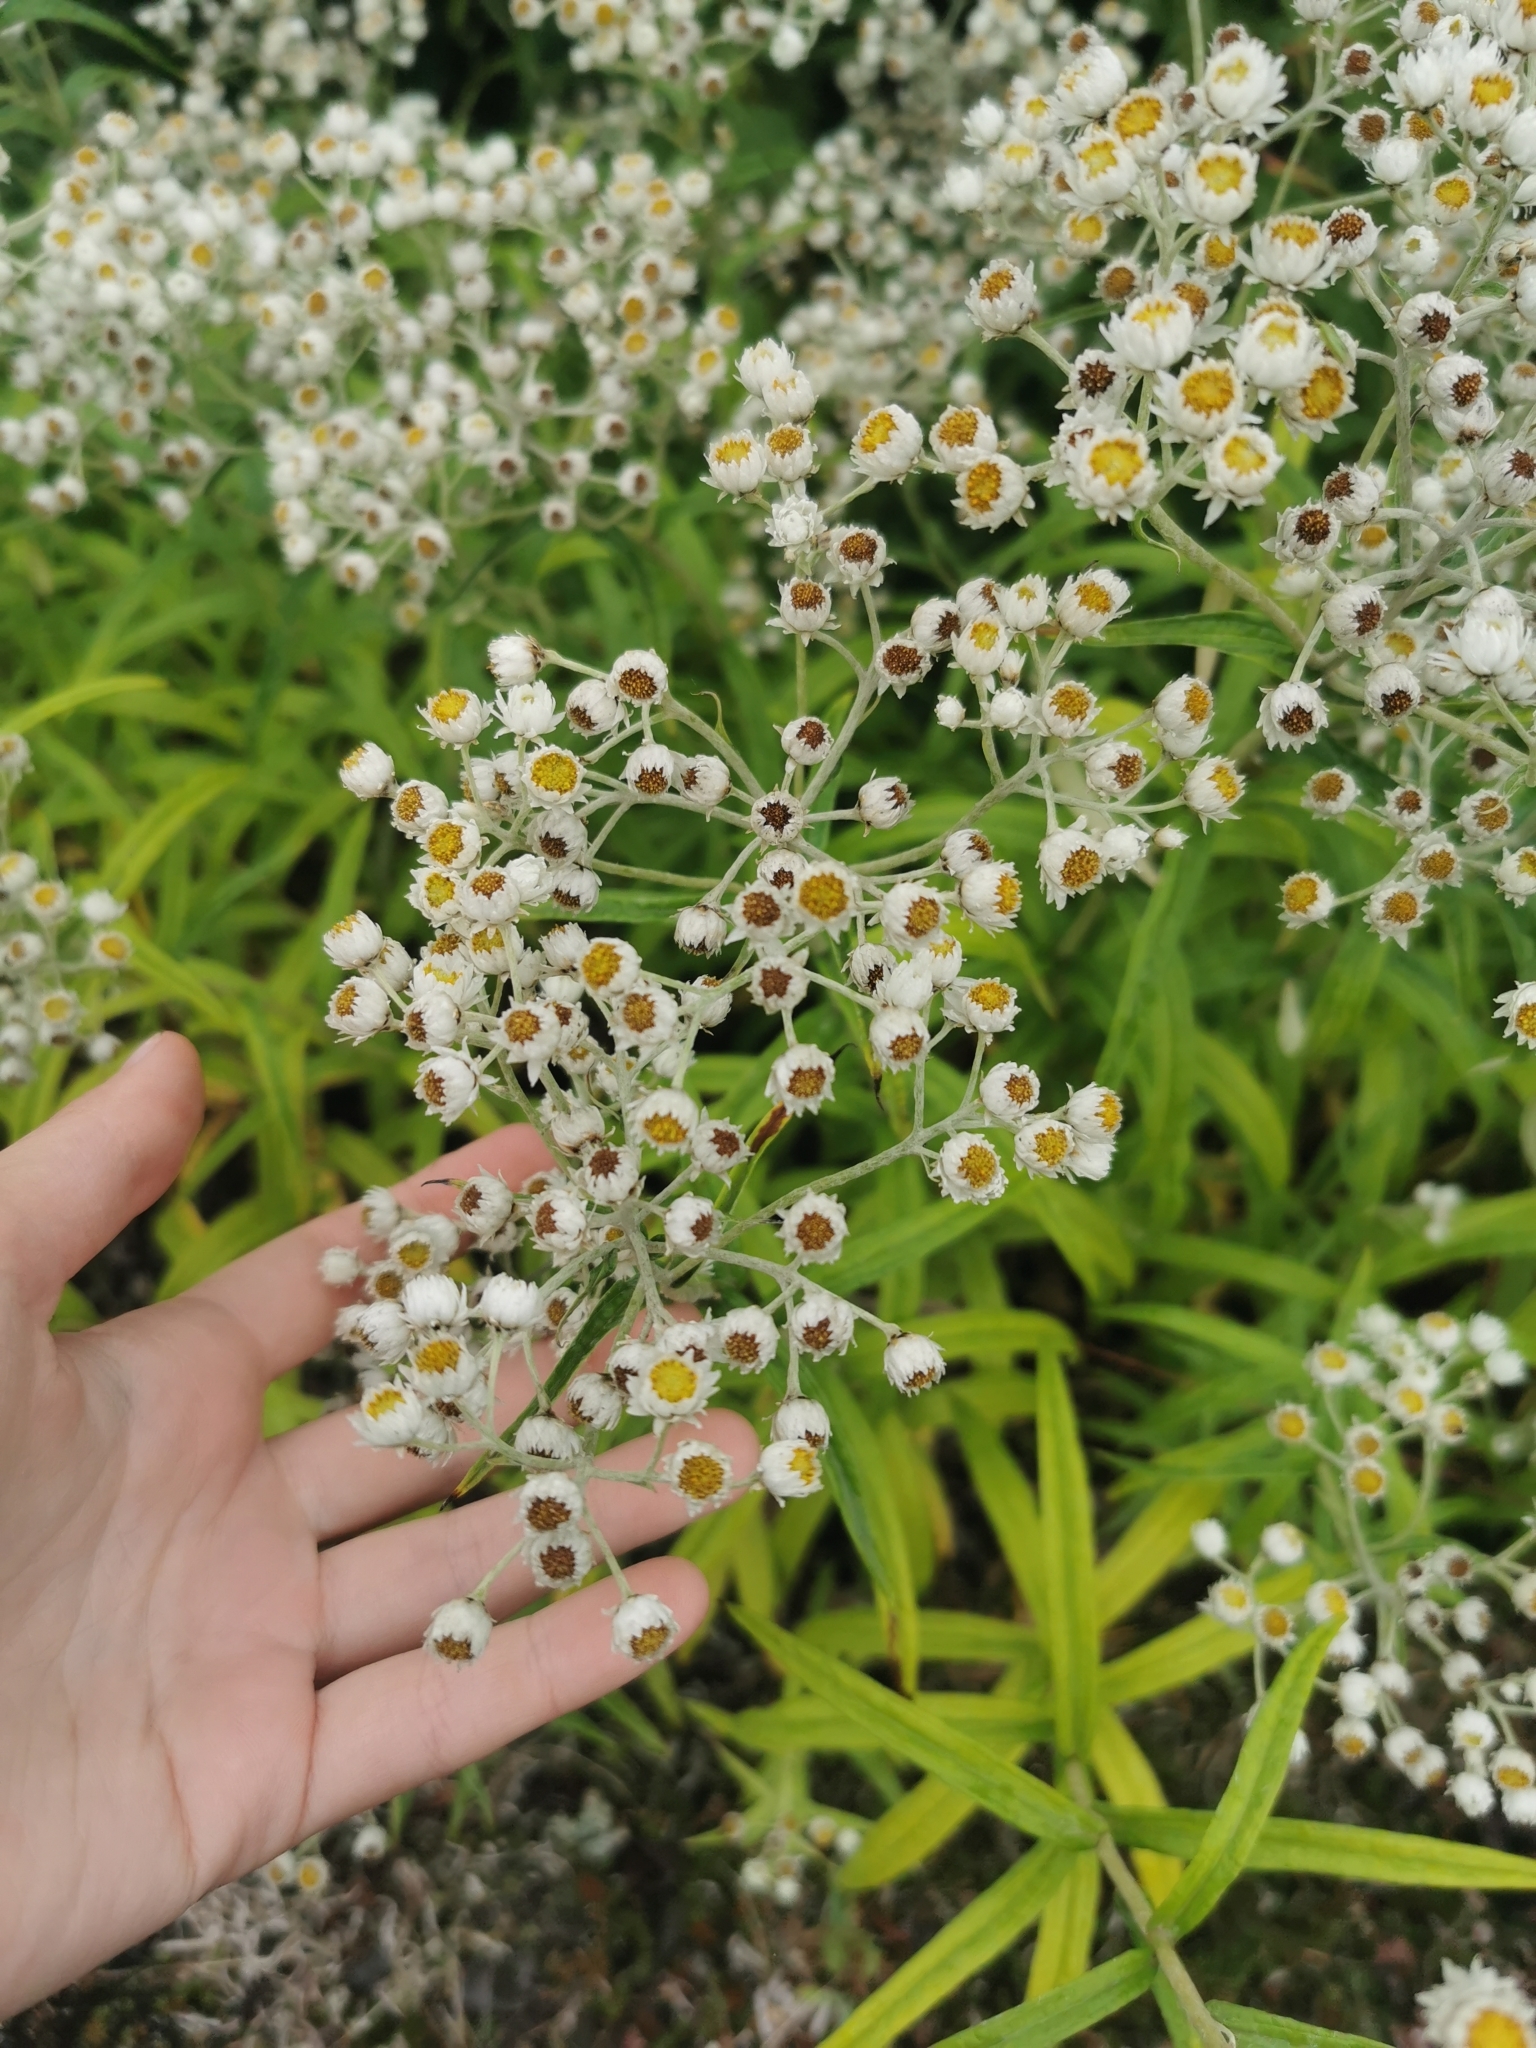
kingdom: Plantae
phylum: Tracheophyta
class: Magnoliopsida
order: Asterales
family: Asteraceae
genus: Anaphalis
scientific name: Anaphalis margaritacea
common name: Pearly everlasting
